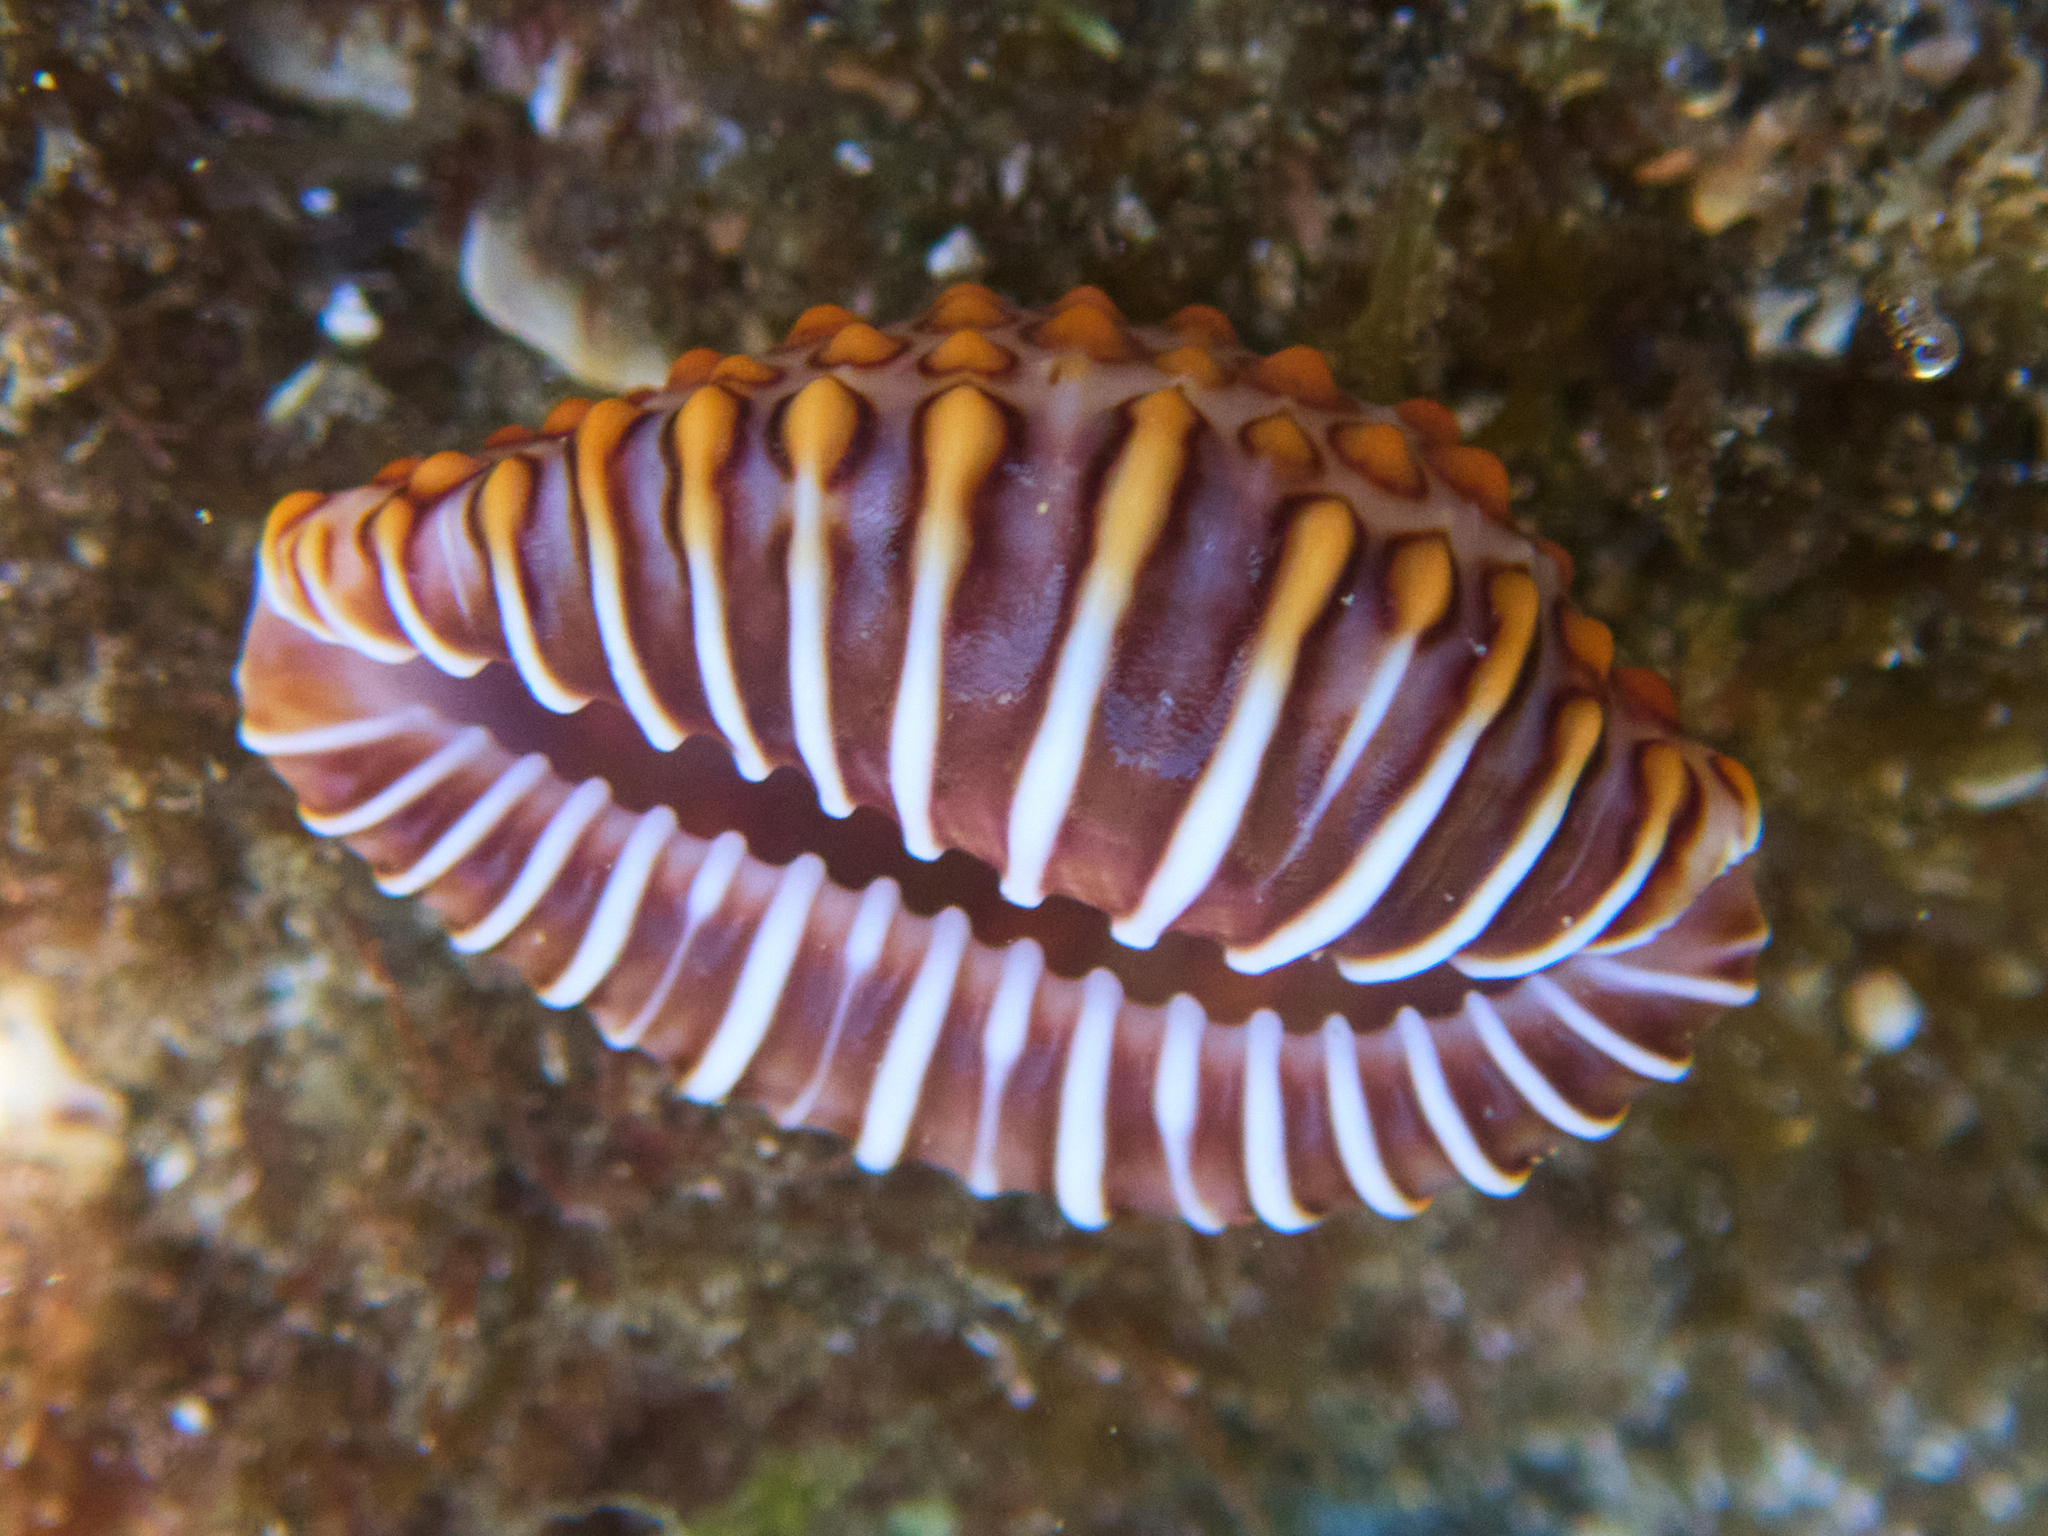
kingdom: Animalia
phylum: Mollusca
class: Gastropoda
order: Littorinimorpha
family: Pediculariidae
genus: Jenneria
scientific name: Jenneria pustulata
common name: Pustuled cowrie
